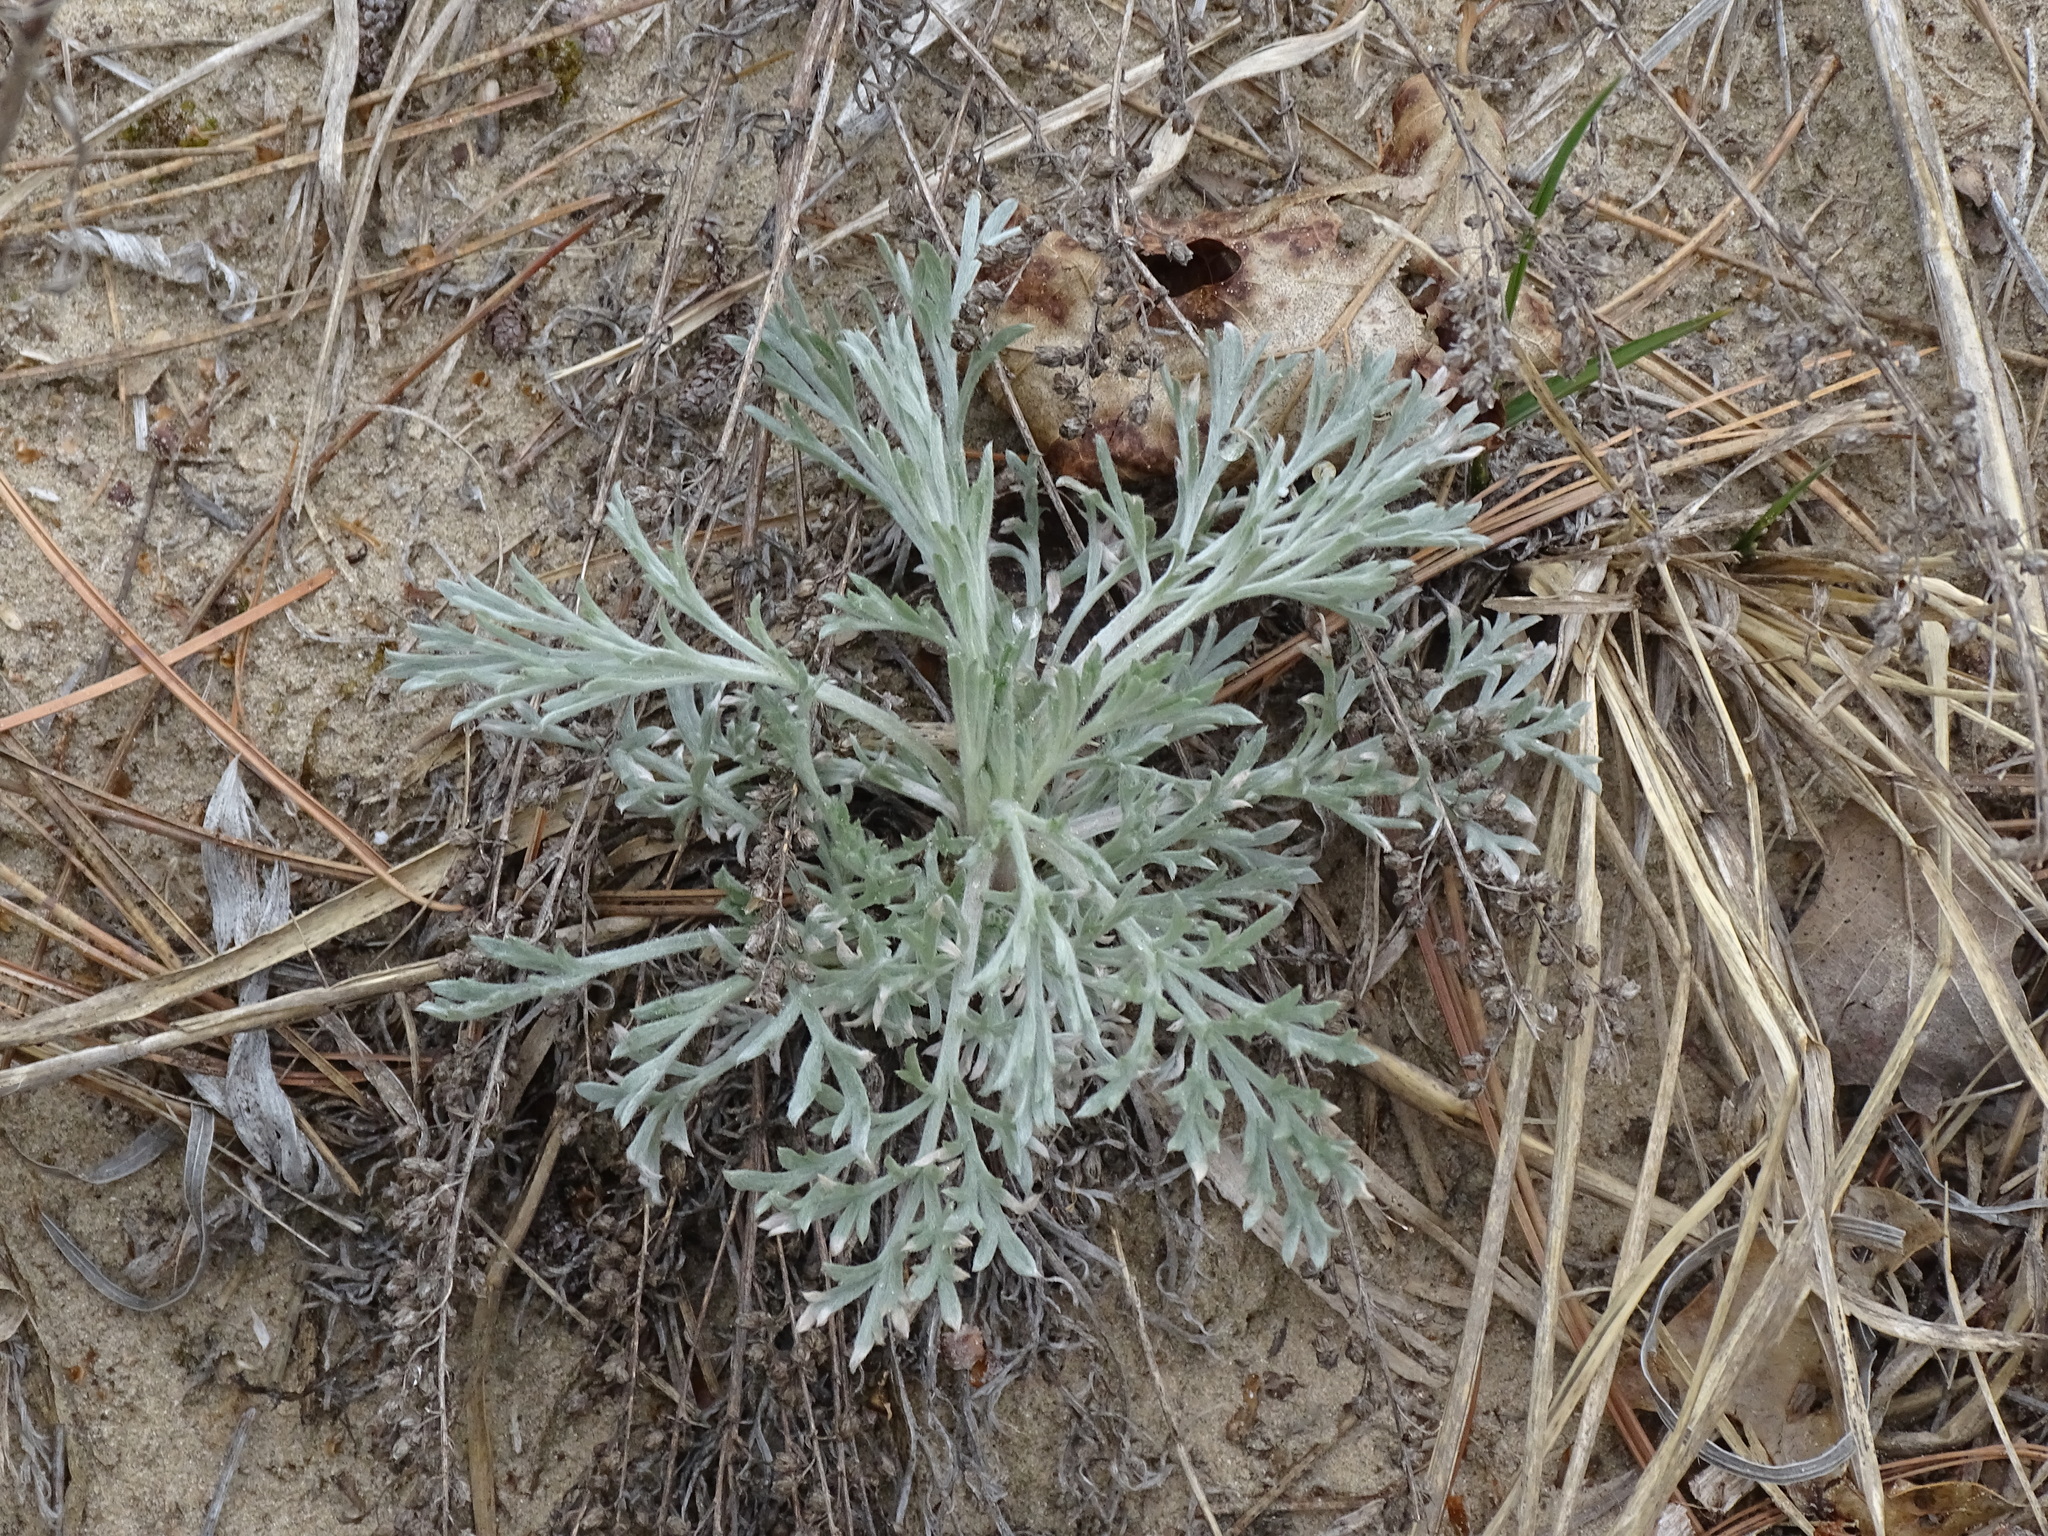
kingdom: Plantae
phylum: Tracheophyta
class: Magnoliopsida
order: Asterales
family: Asteraceae
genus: Artemisia
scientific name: Artemisia campestris
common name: Field wormwood
